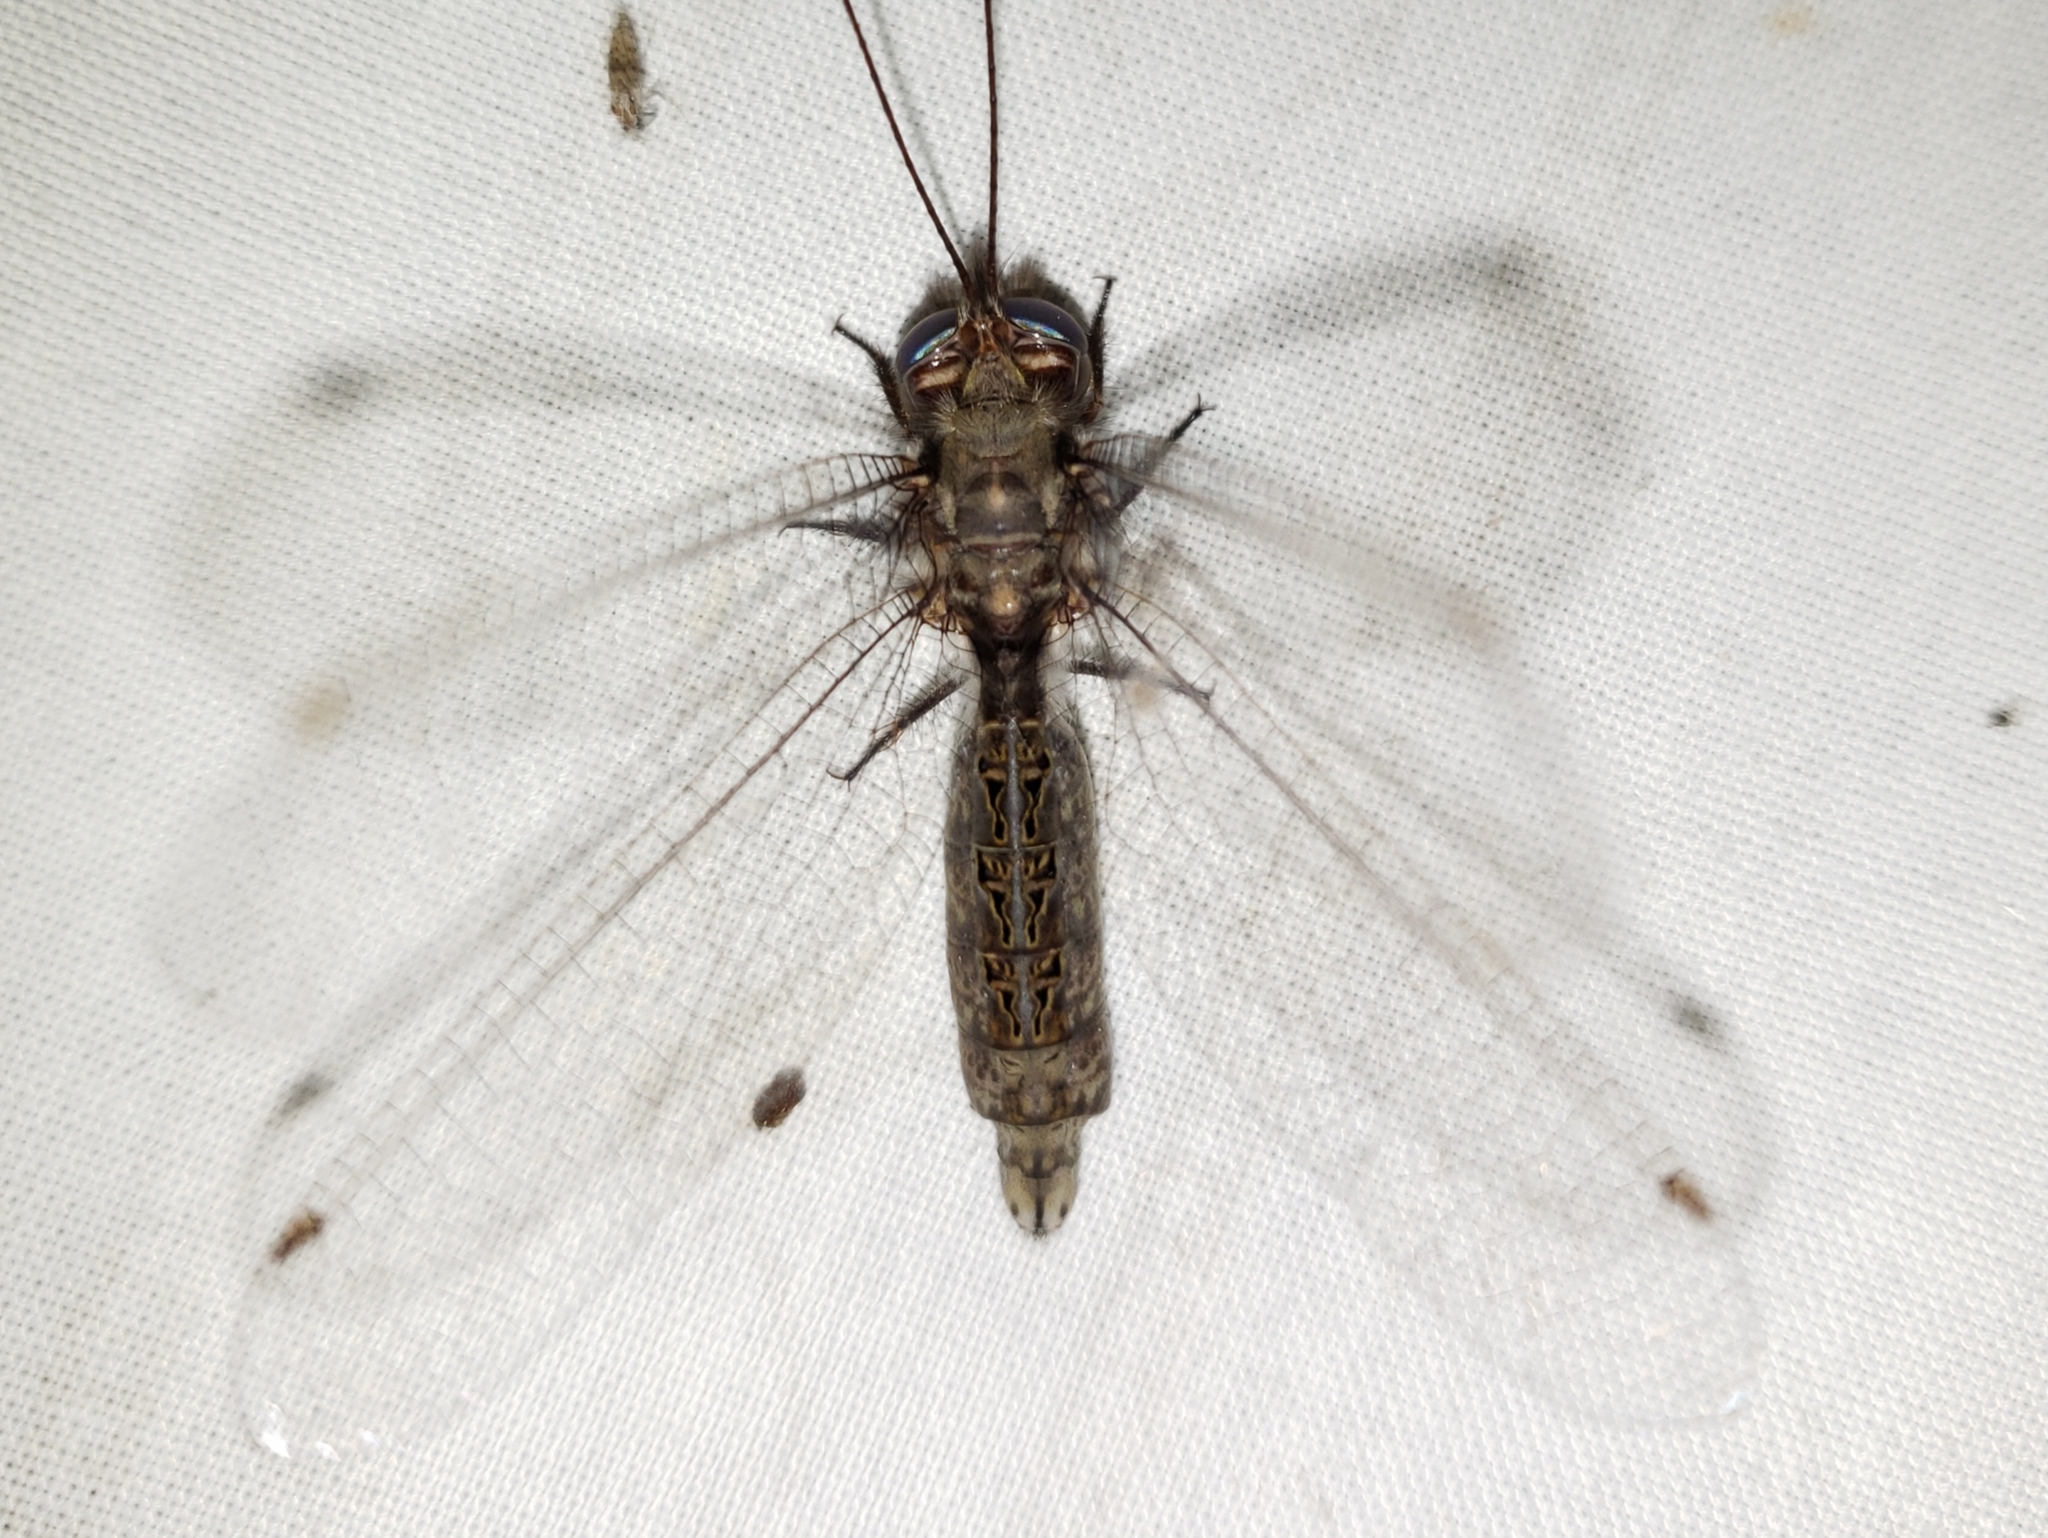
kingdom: Animalia
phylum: Arthropoda
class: Insecta
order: Neuroptera
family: Ascalaphidae
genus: Ululodes
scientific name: Ululodes floridanus
